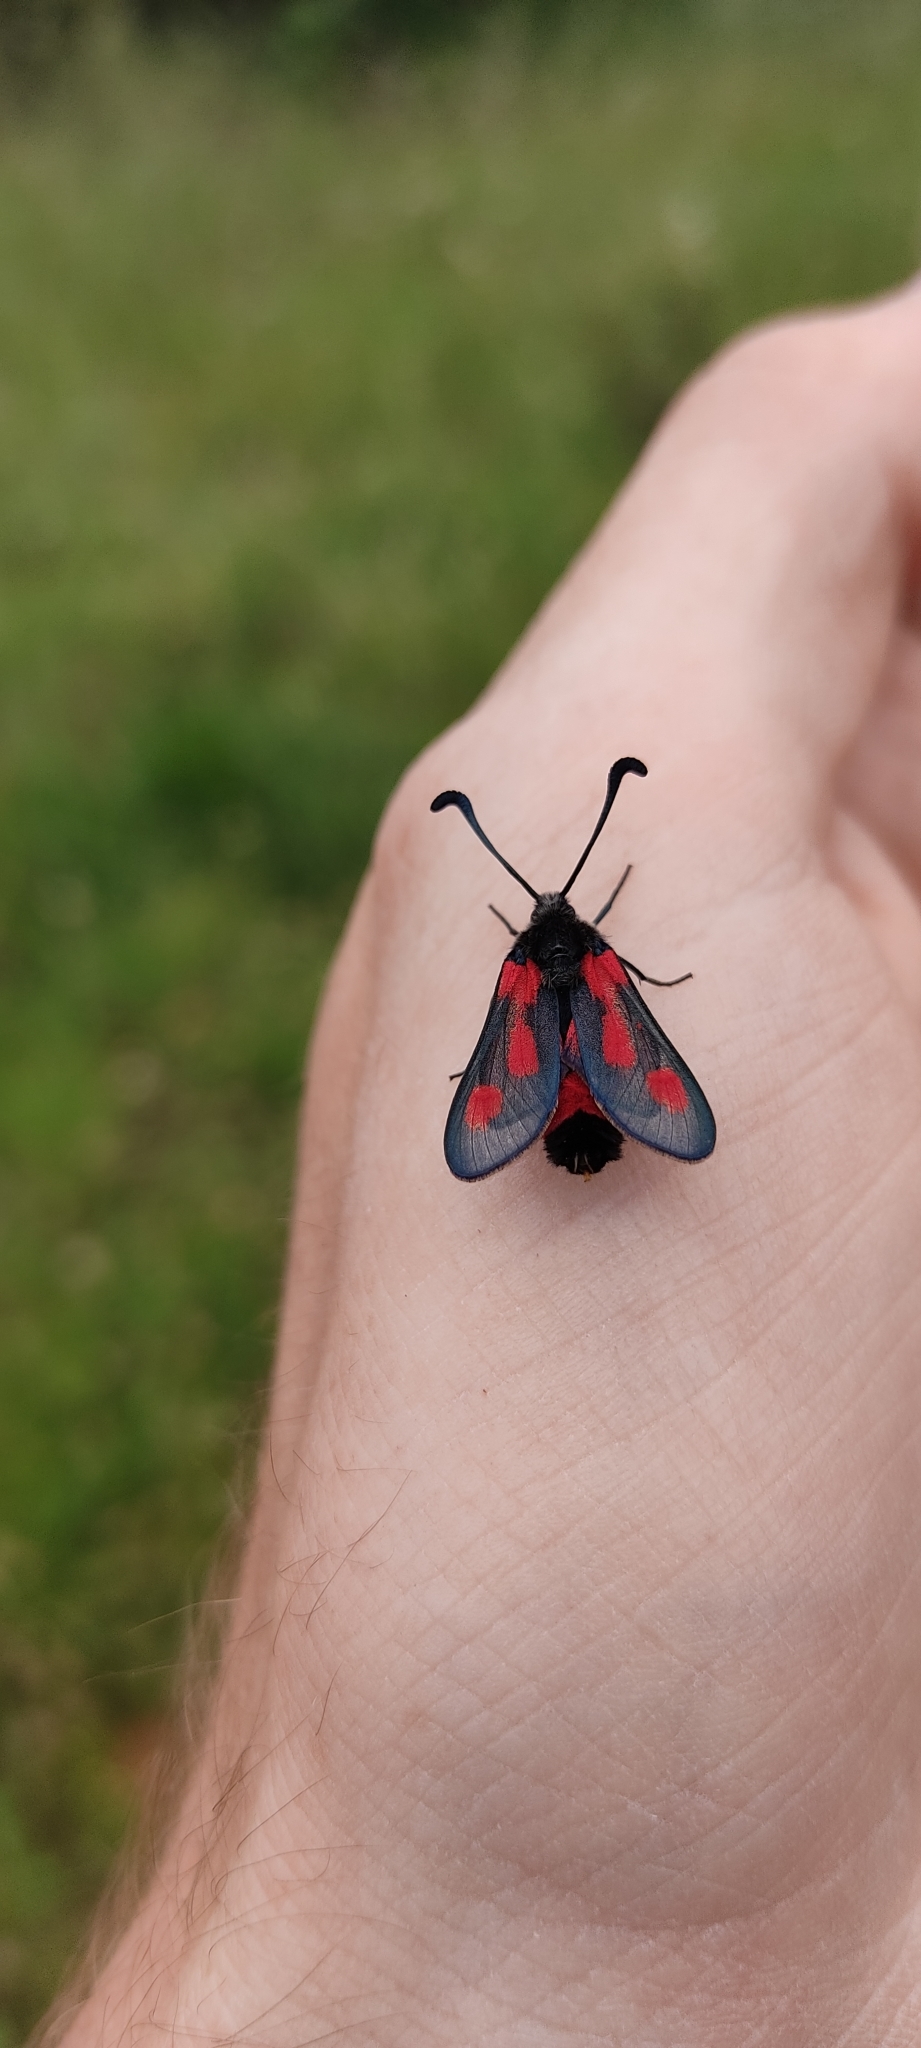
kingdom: Animalia
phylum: Arthropoda
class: Insecta
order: Lepidoptera
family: Zygaenidae
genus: Zygaena
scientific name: Zygaena sarpedon
